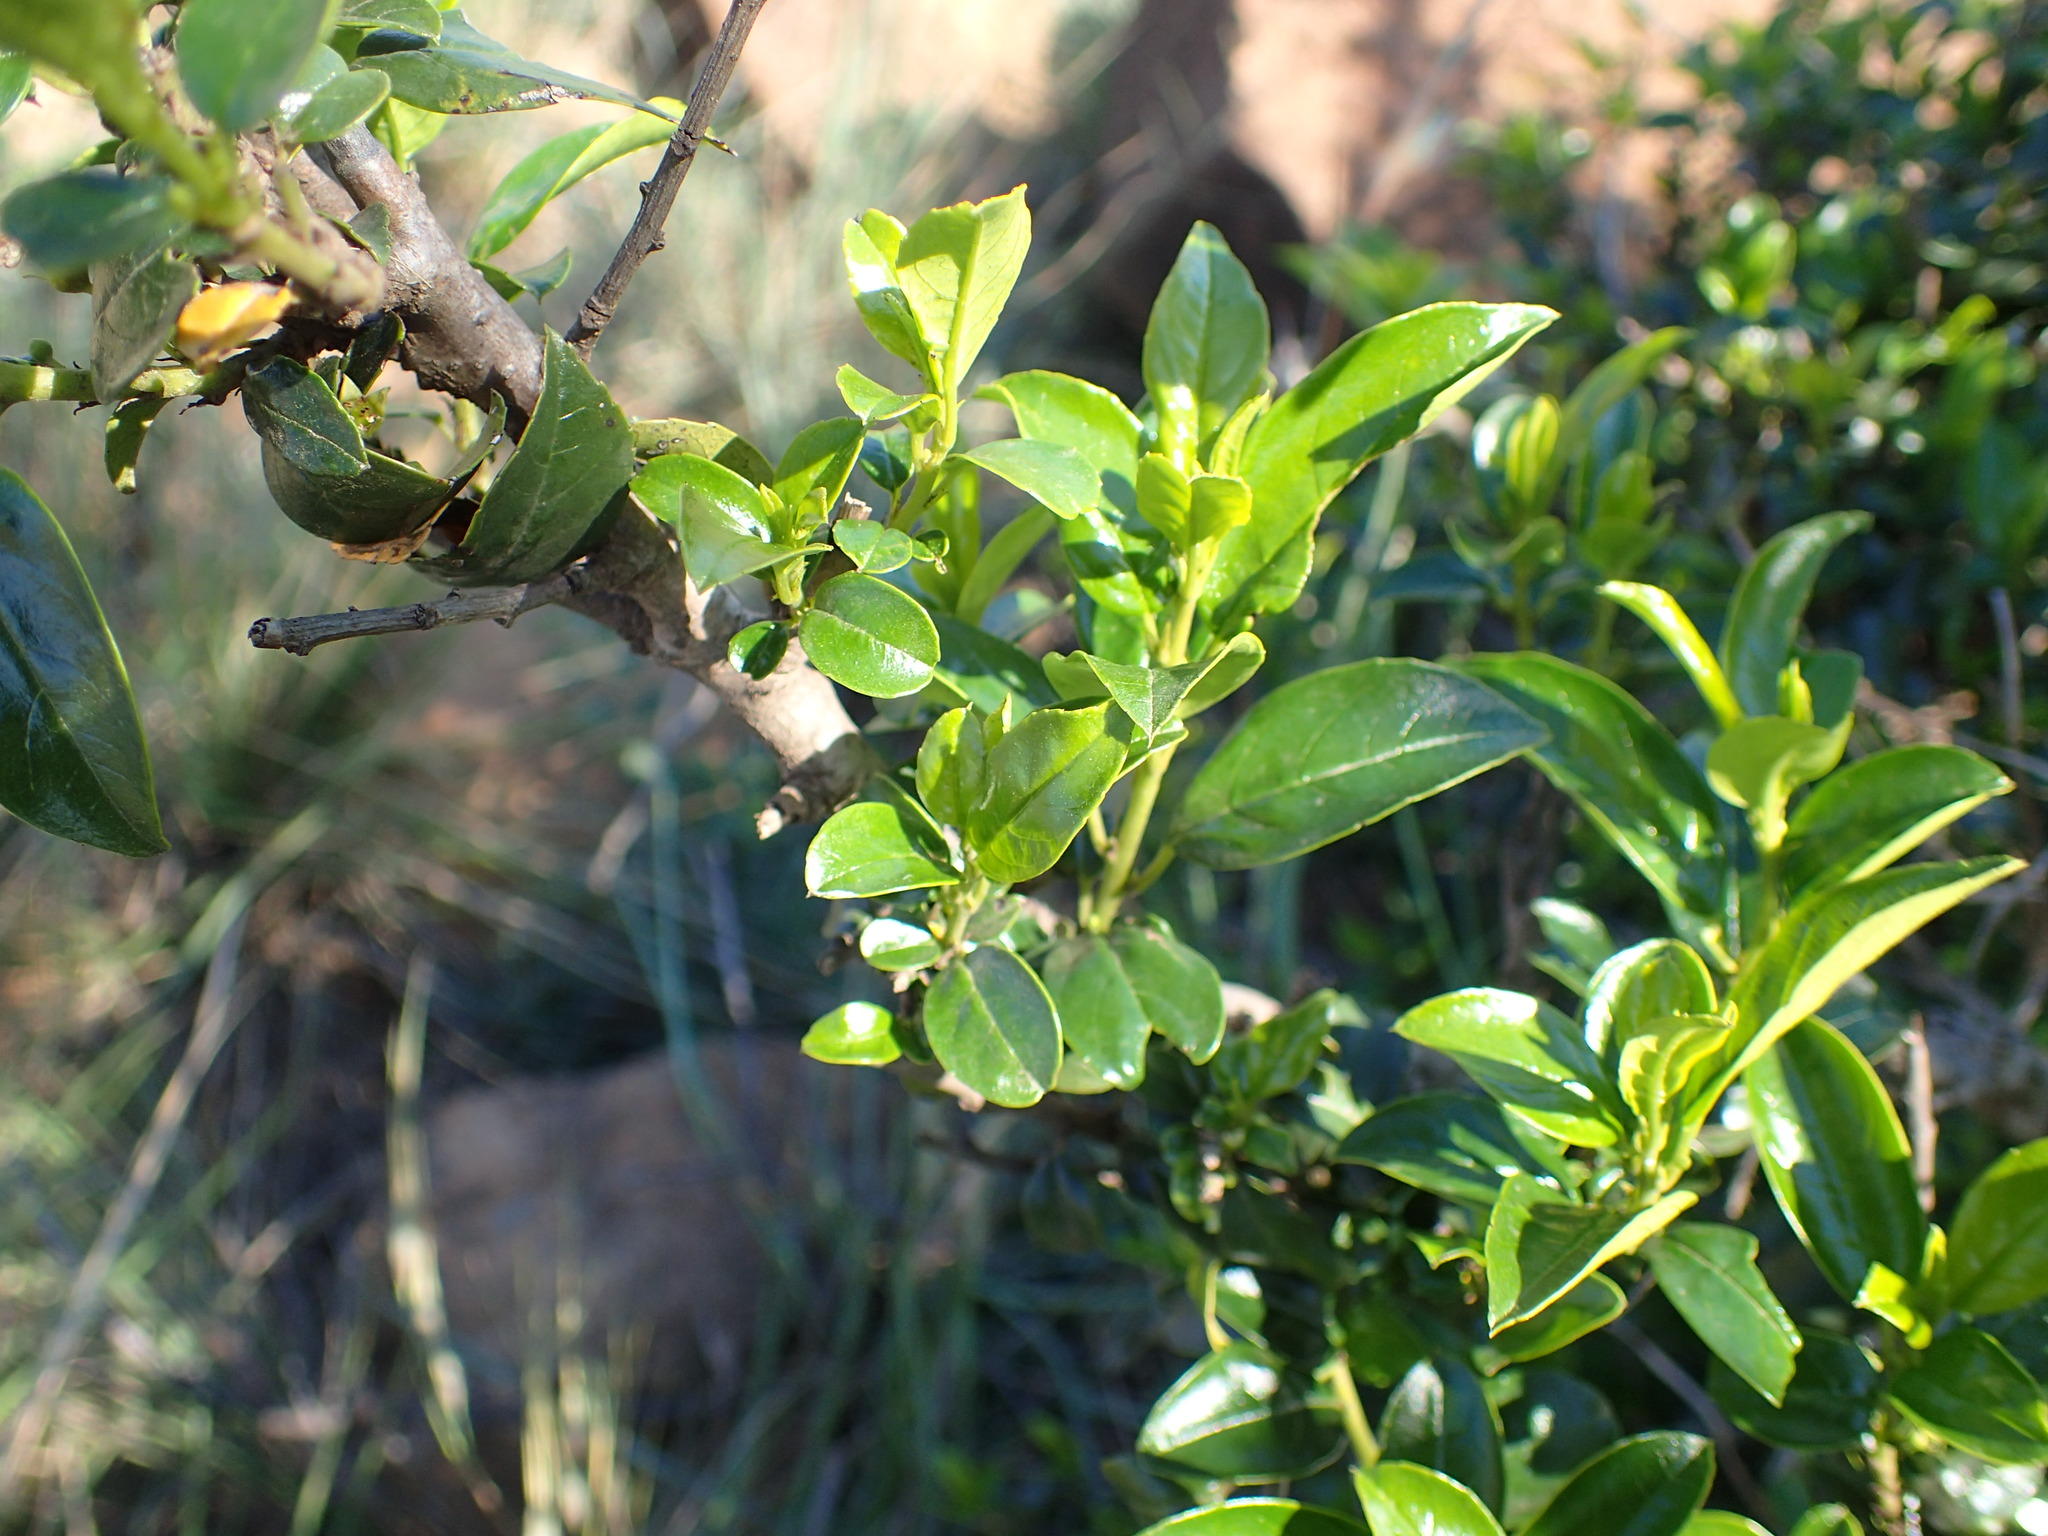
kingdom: Plantae
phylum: Tracheophyta
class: Magnoliopsida
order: Rosales
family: Rhamnaceae
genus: Rhamnus
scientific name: Rhamnus prinoides
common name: Dogwood
